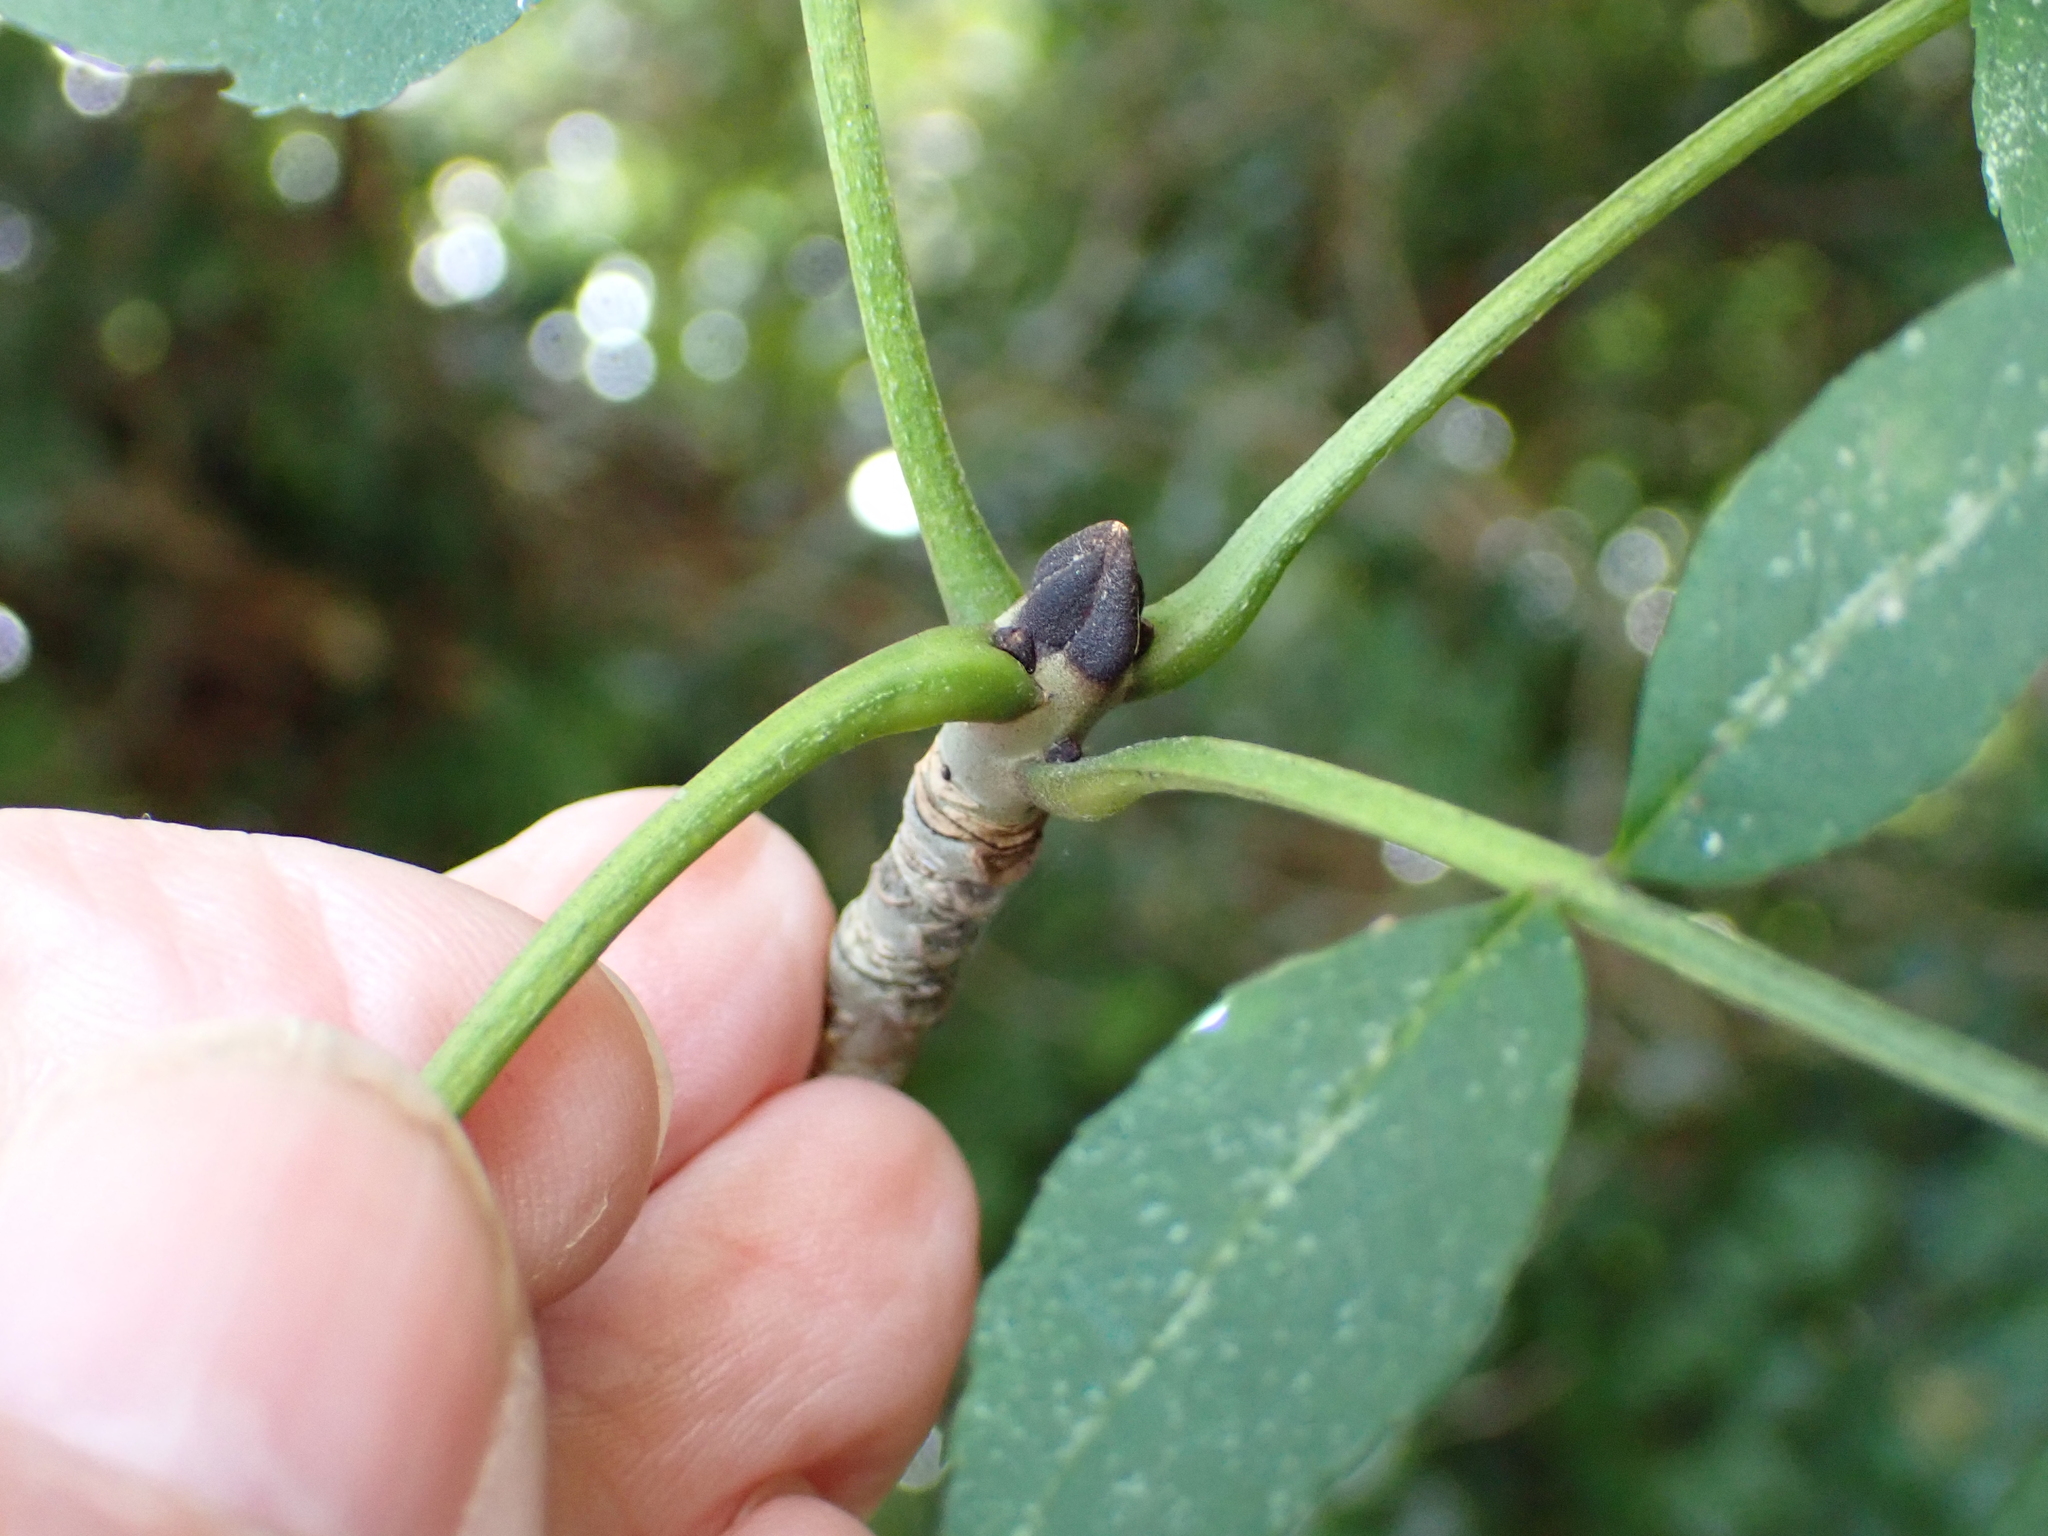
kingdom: Plantae
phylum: Tracheophyta
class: Magnoliopsida
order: Lamiales
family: Oleaceae
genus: Fraxinus
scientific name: Fraxinus excelsior
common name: European ash
